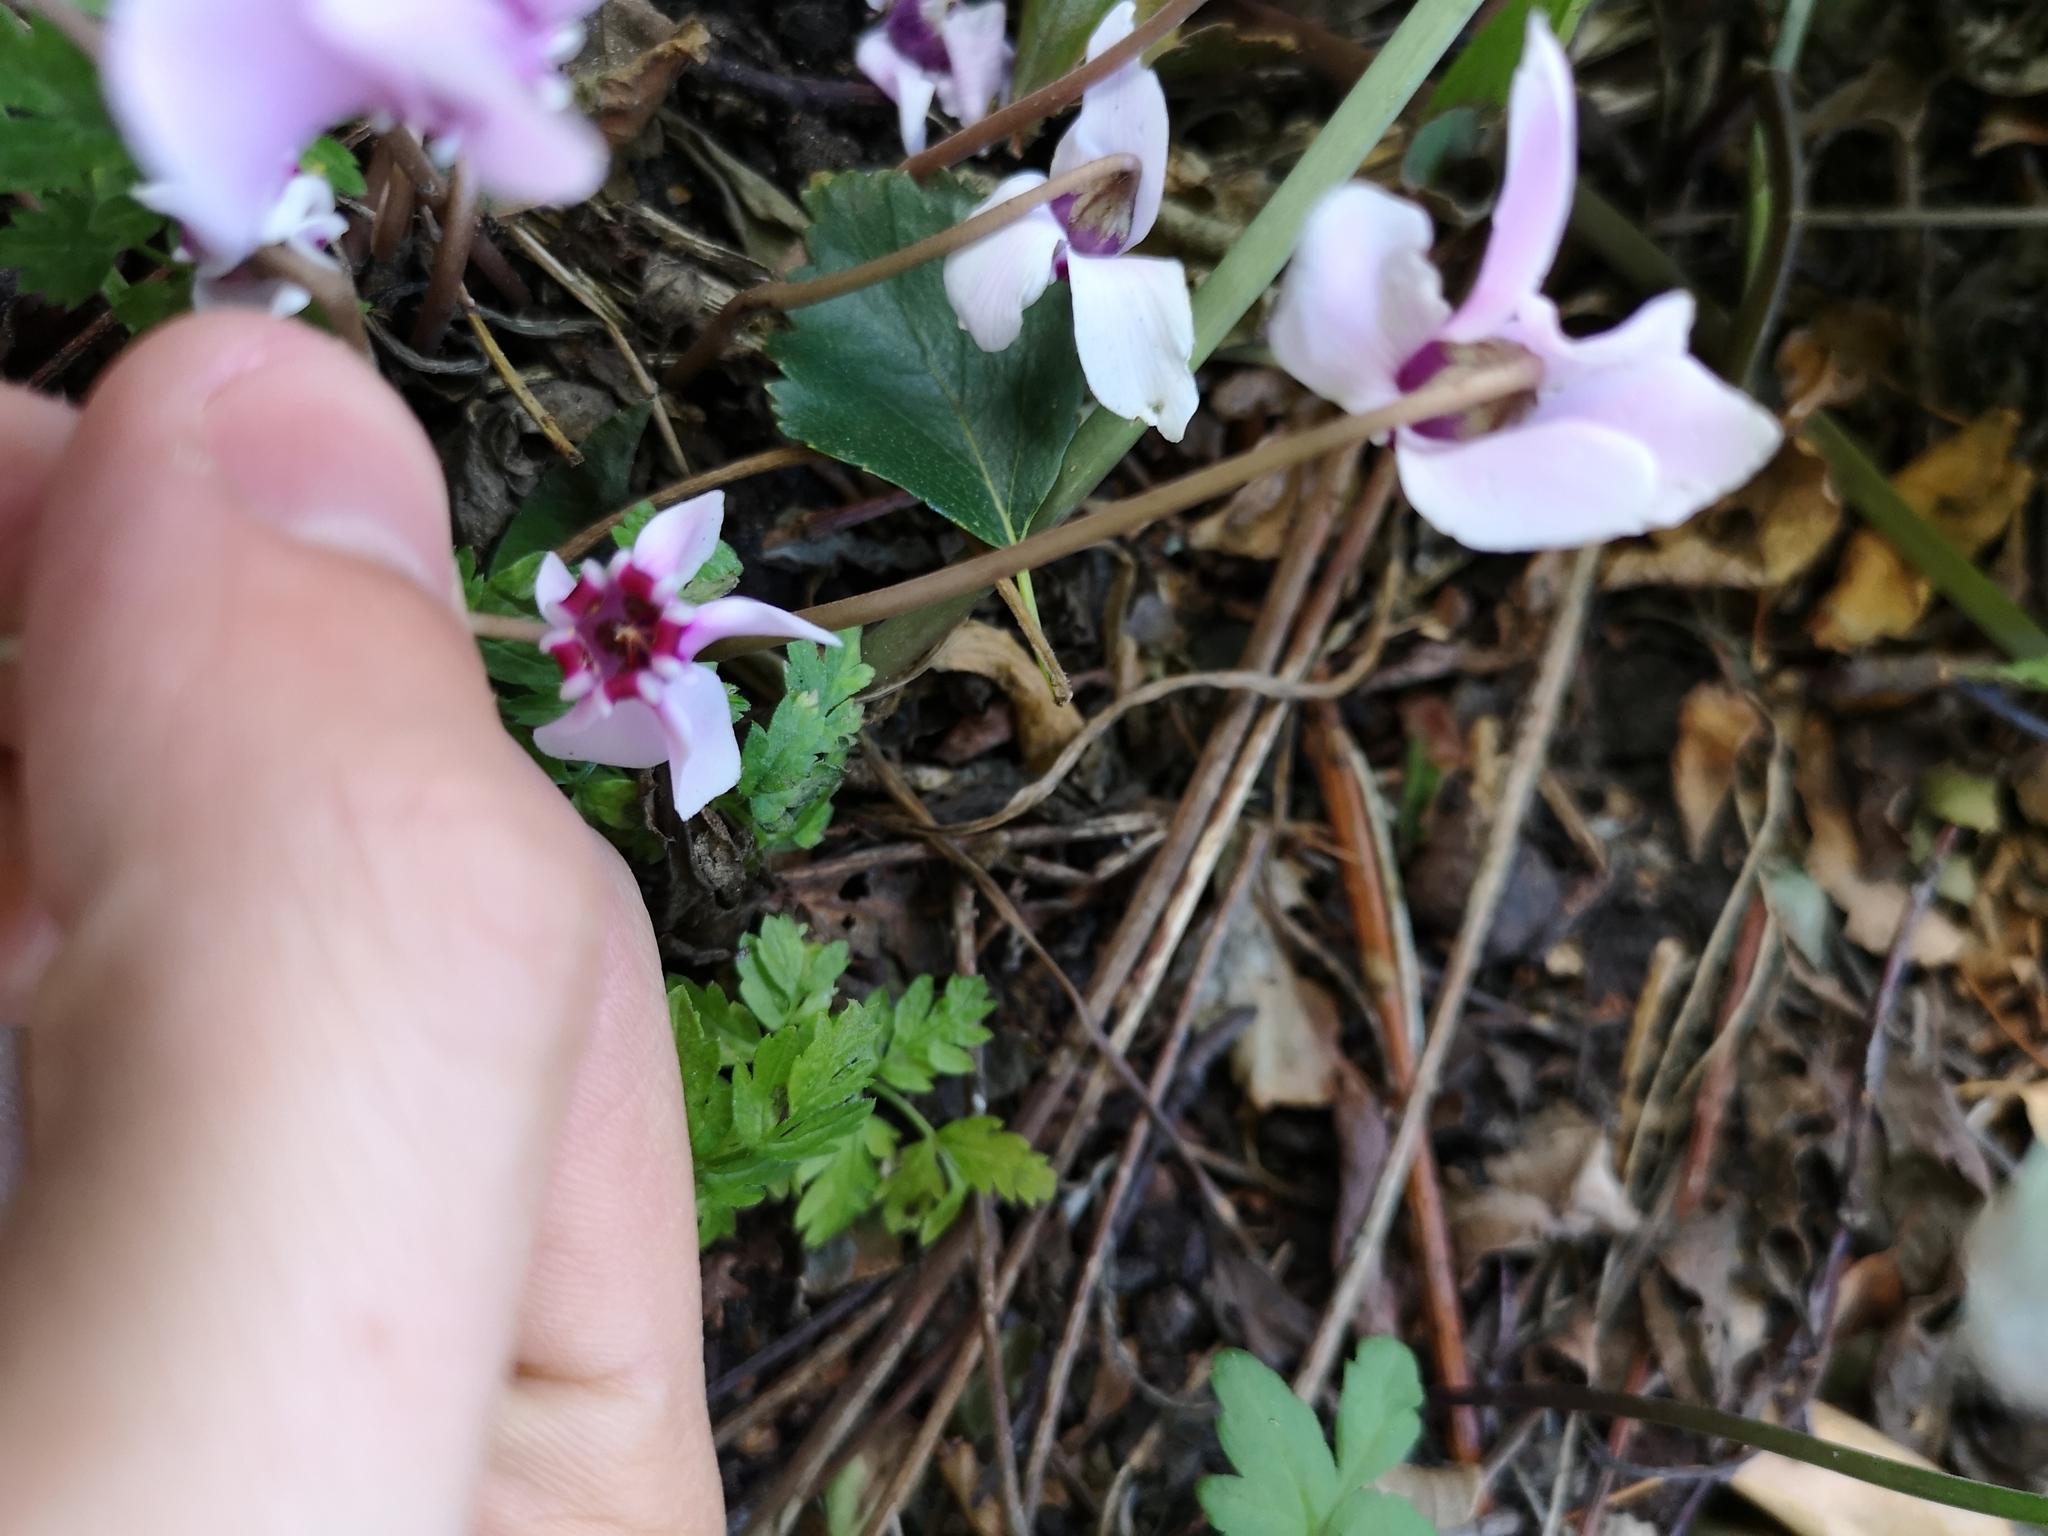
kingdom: Plantae
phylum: Tracheophyta
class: Magnoliopsida
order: Ericales
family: Primulaceae
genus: Cyclamen
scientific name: Cyclamen hederifolium
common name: Sowbread
